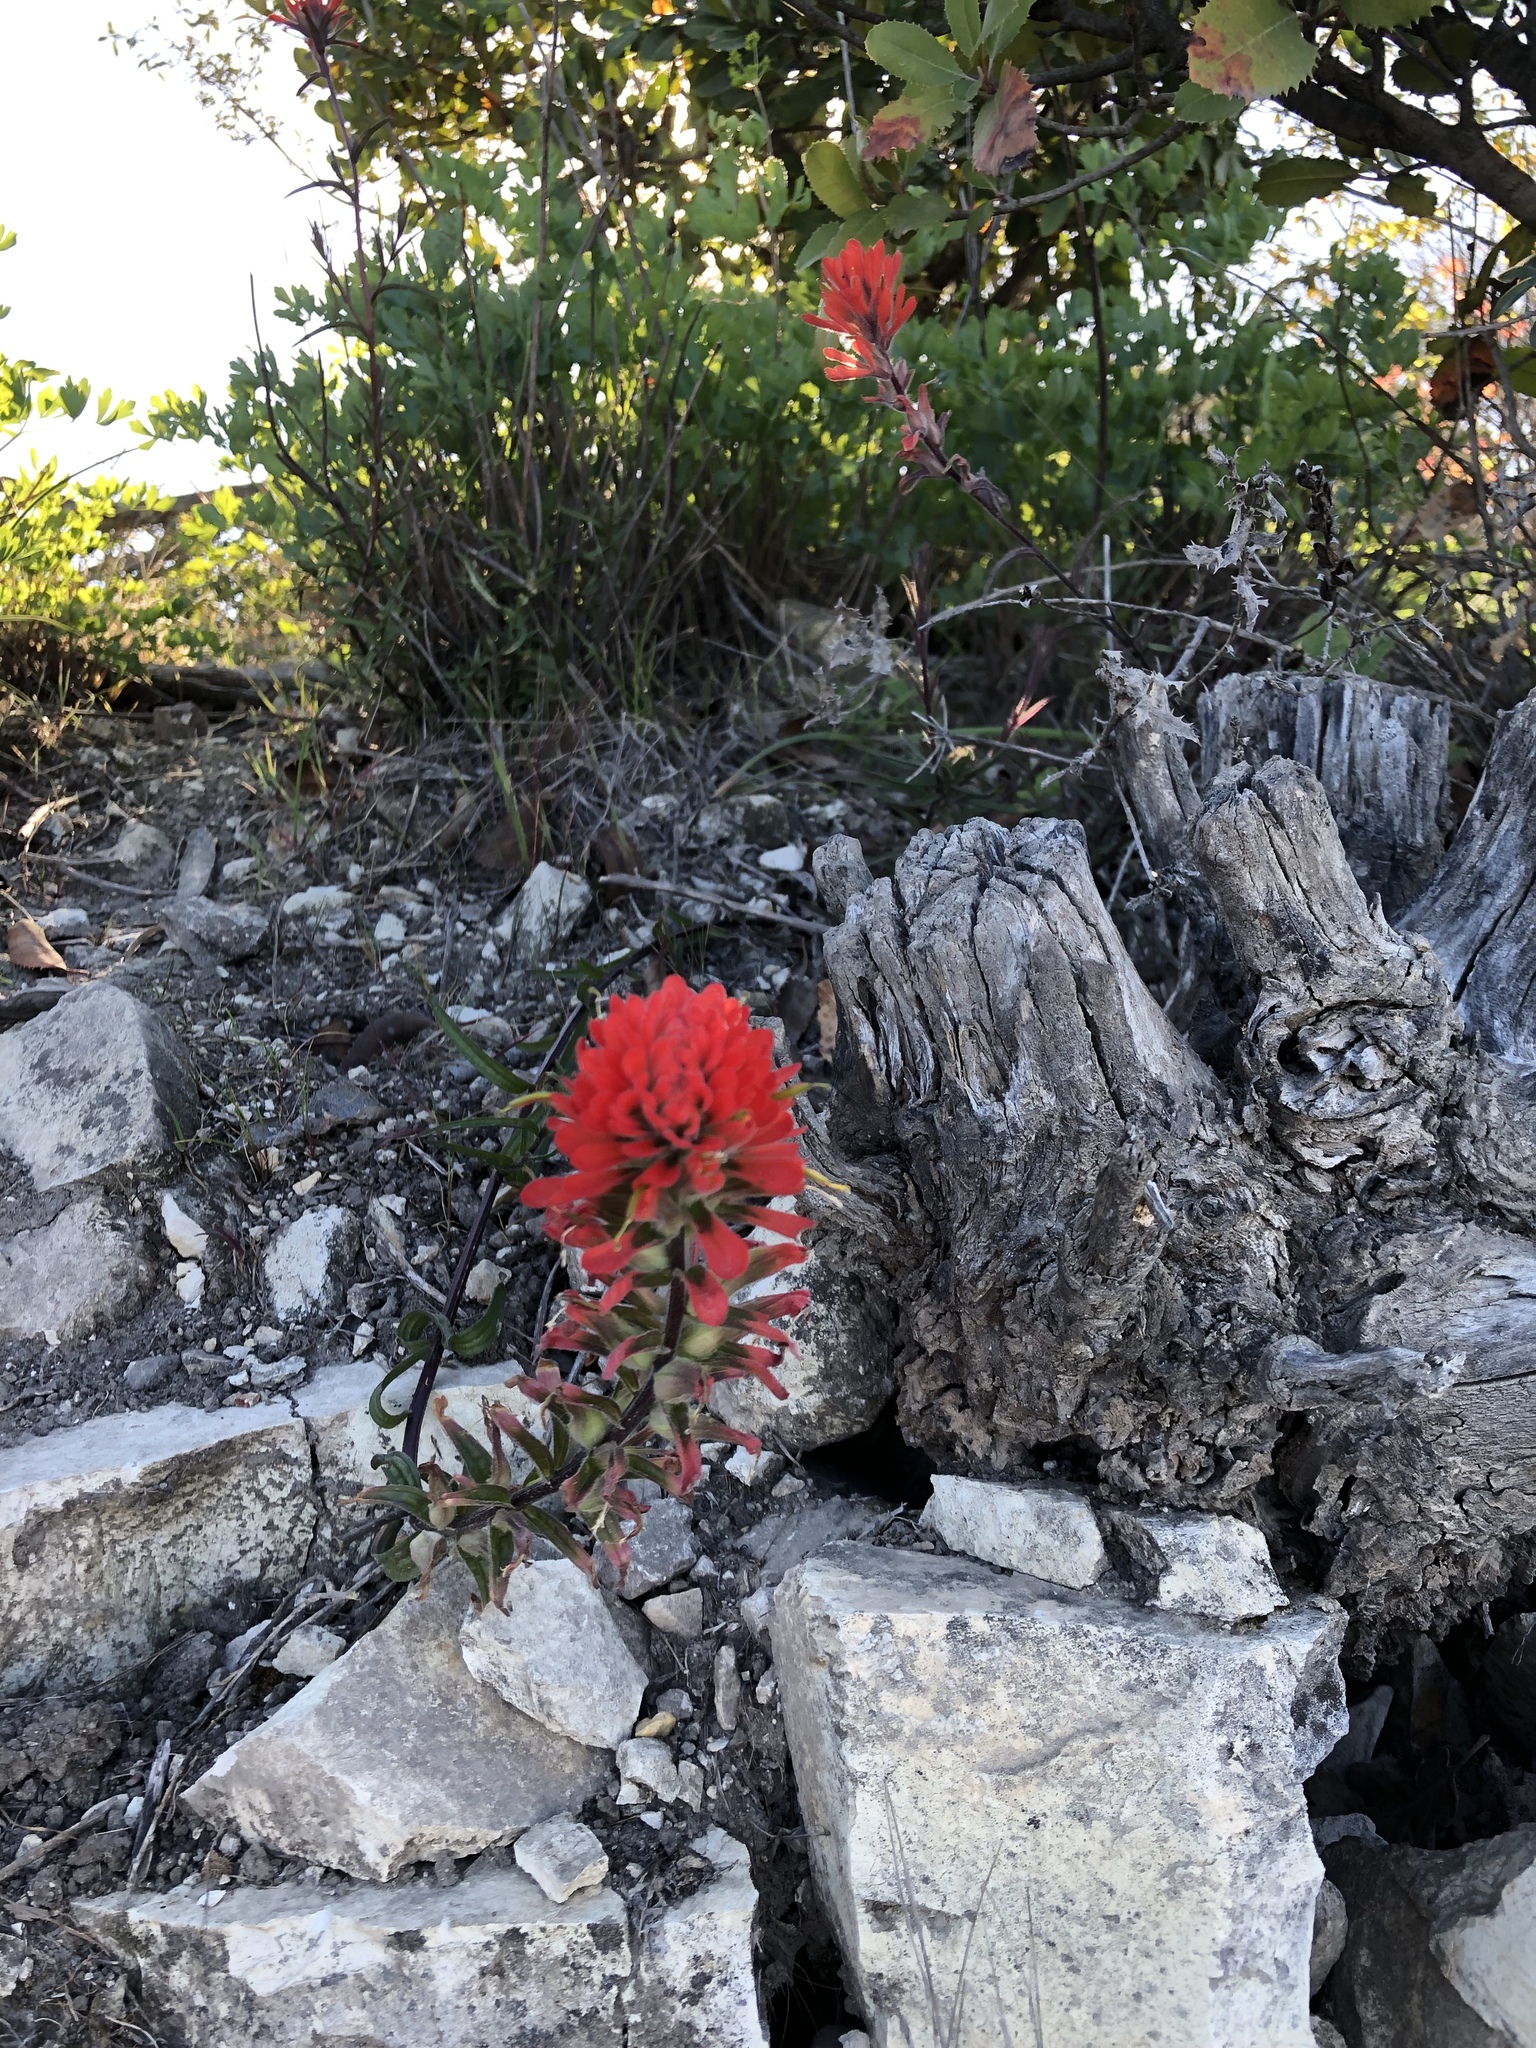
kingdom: Plantae
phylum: Tracheophyta
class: Magnoliopsida
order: Lamiales
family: Orobanchaceae
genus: Castilleja
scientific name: Castilleja affinis
